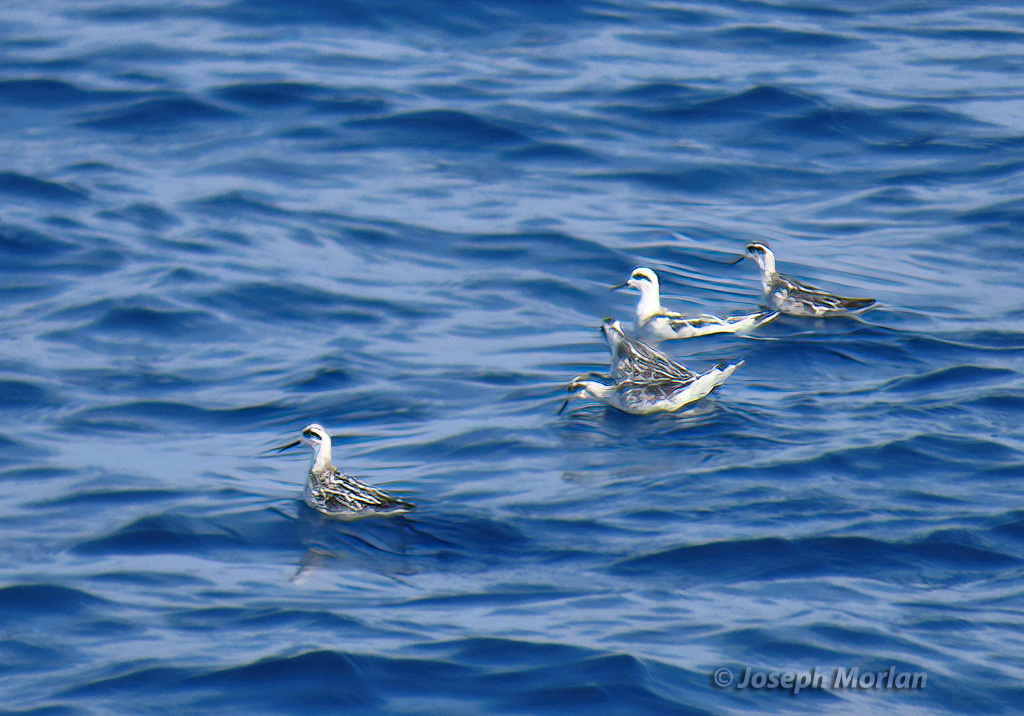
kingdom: Animalia
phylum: Chordata
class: Aves
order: Charadriiformes
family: Scolopacidae
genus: Phalaropus
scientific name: Phalaropus lobatus
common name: Red-necked phalarope
